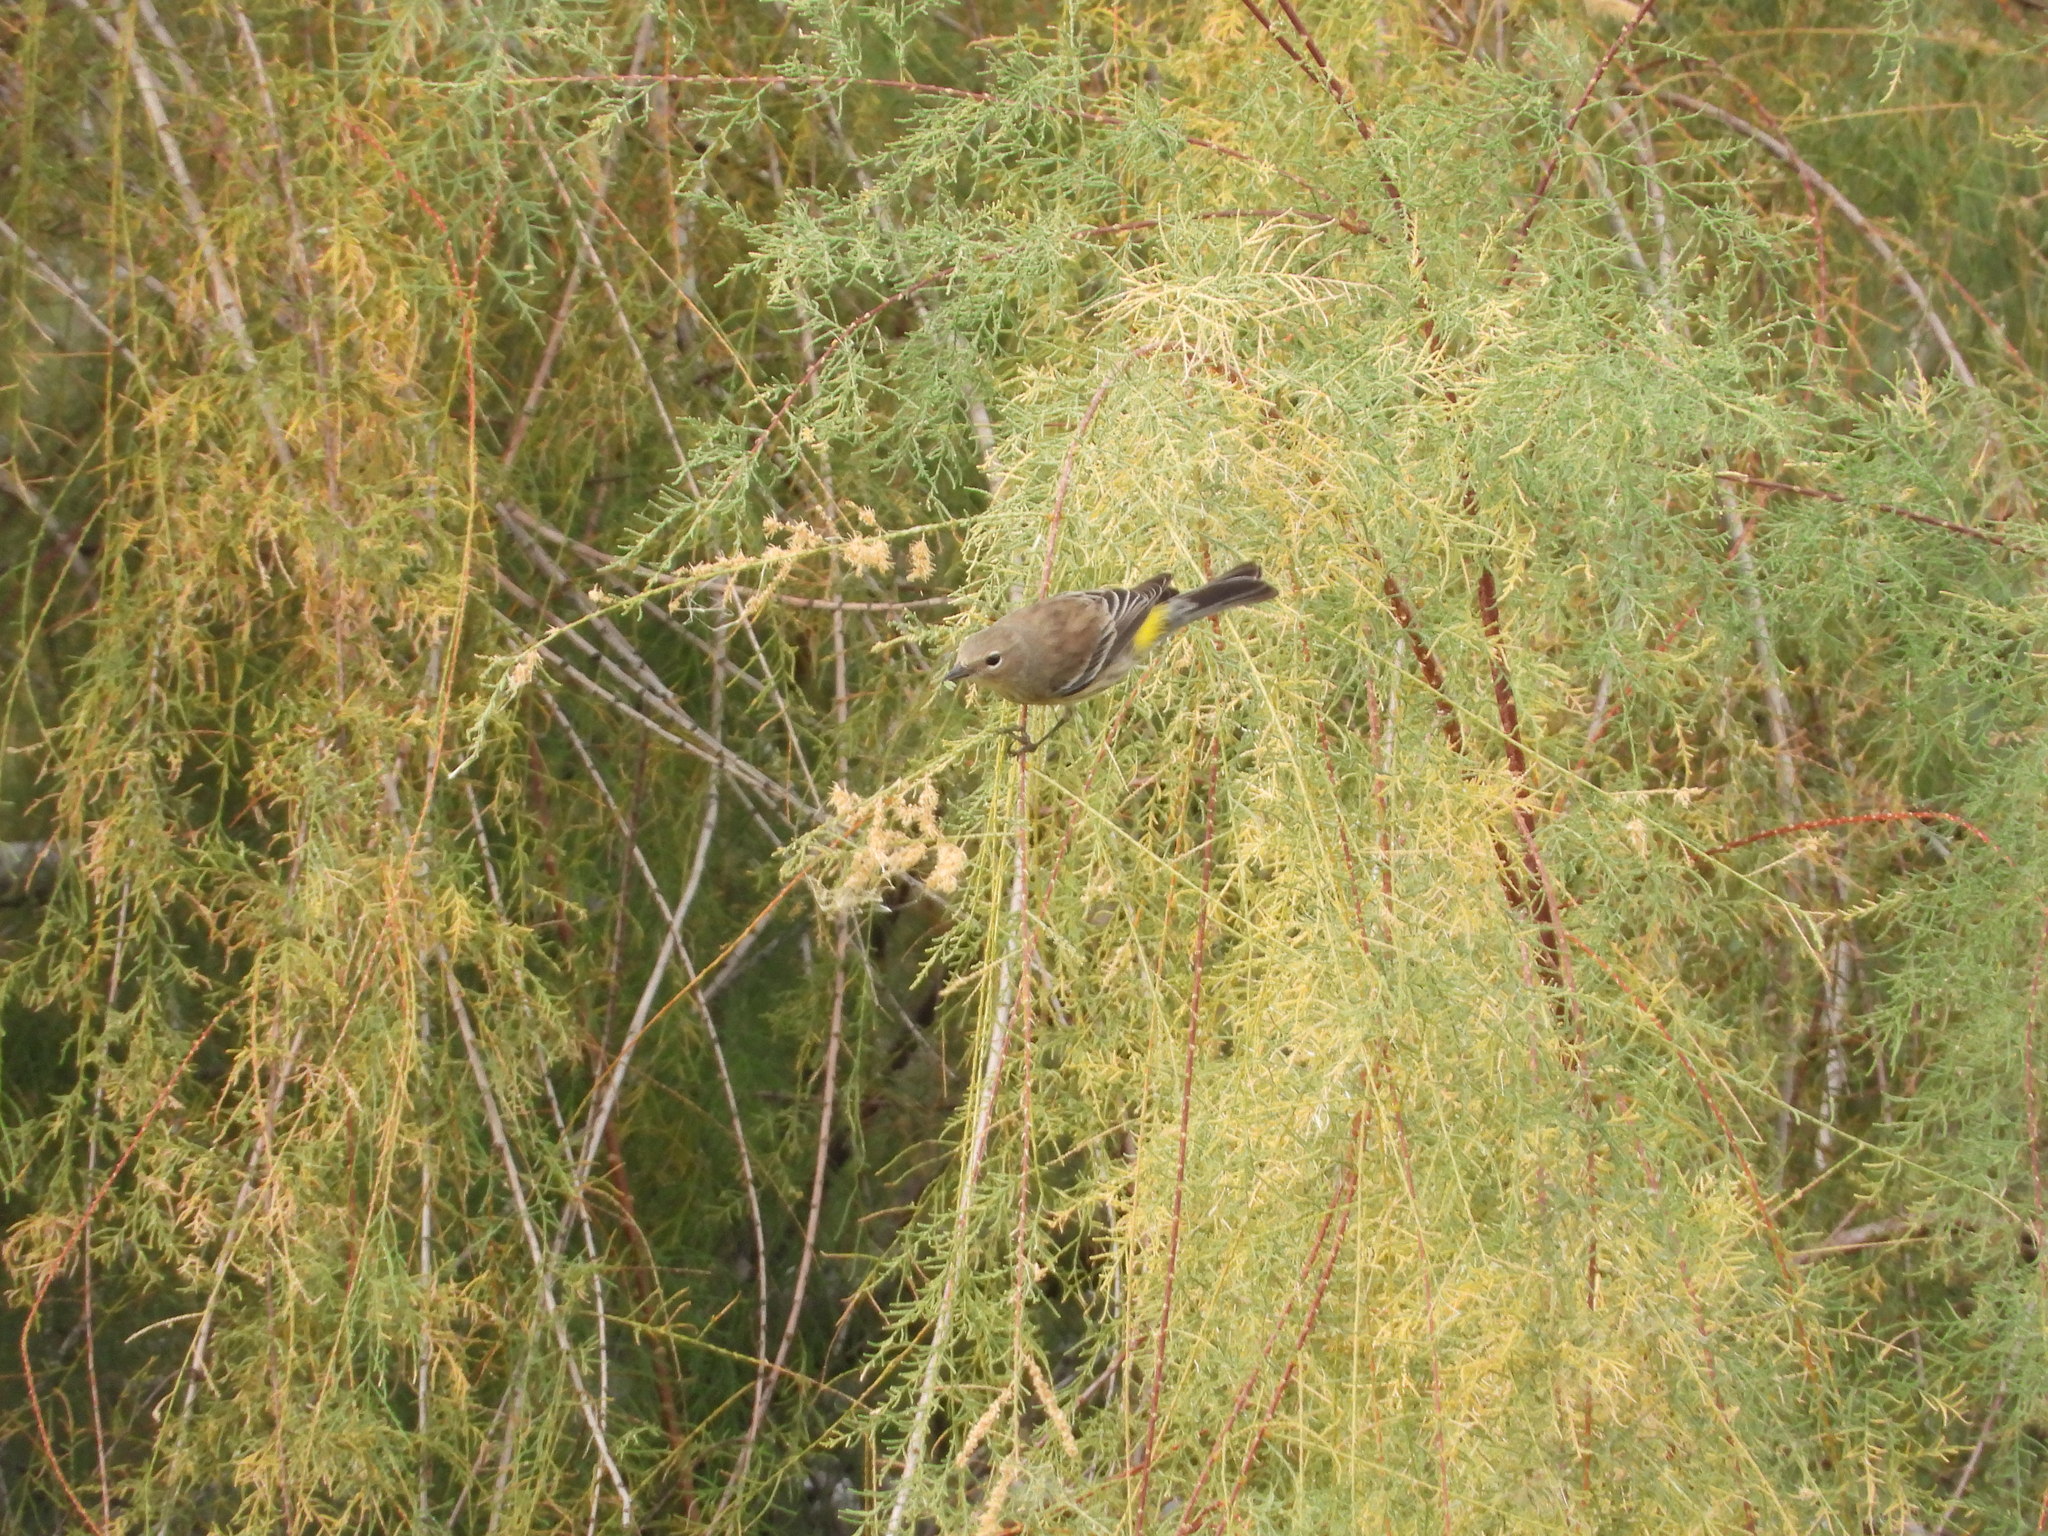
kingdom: Animalia
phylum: Chordata
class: Aves
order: Passeriformes
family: Parulidae
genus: Setophaga
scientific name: Setophaga coronata
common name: Myrtle warbler
